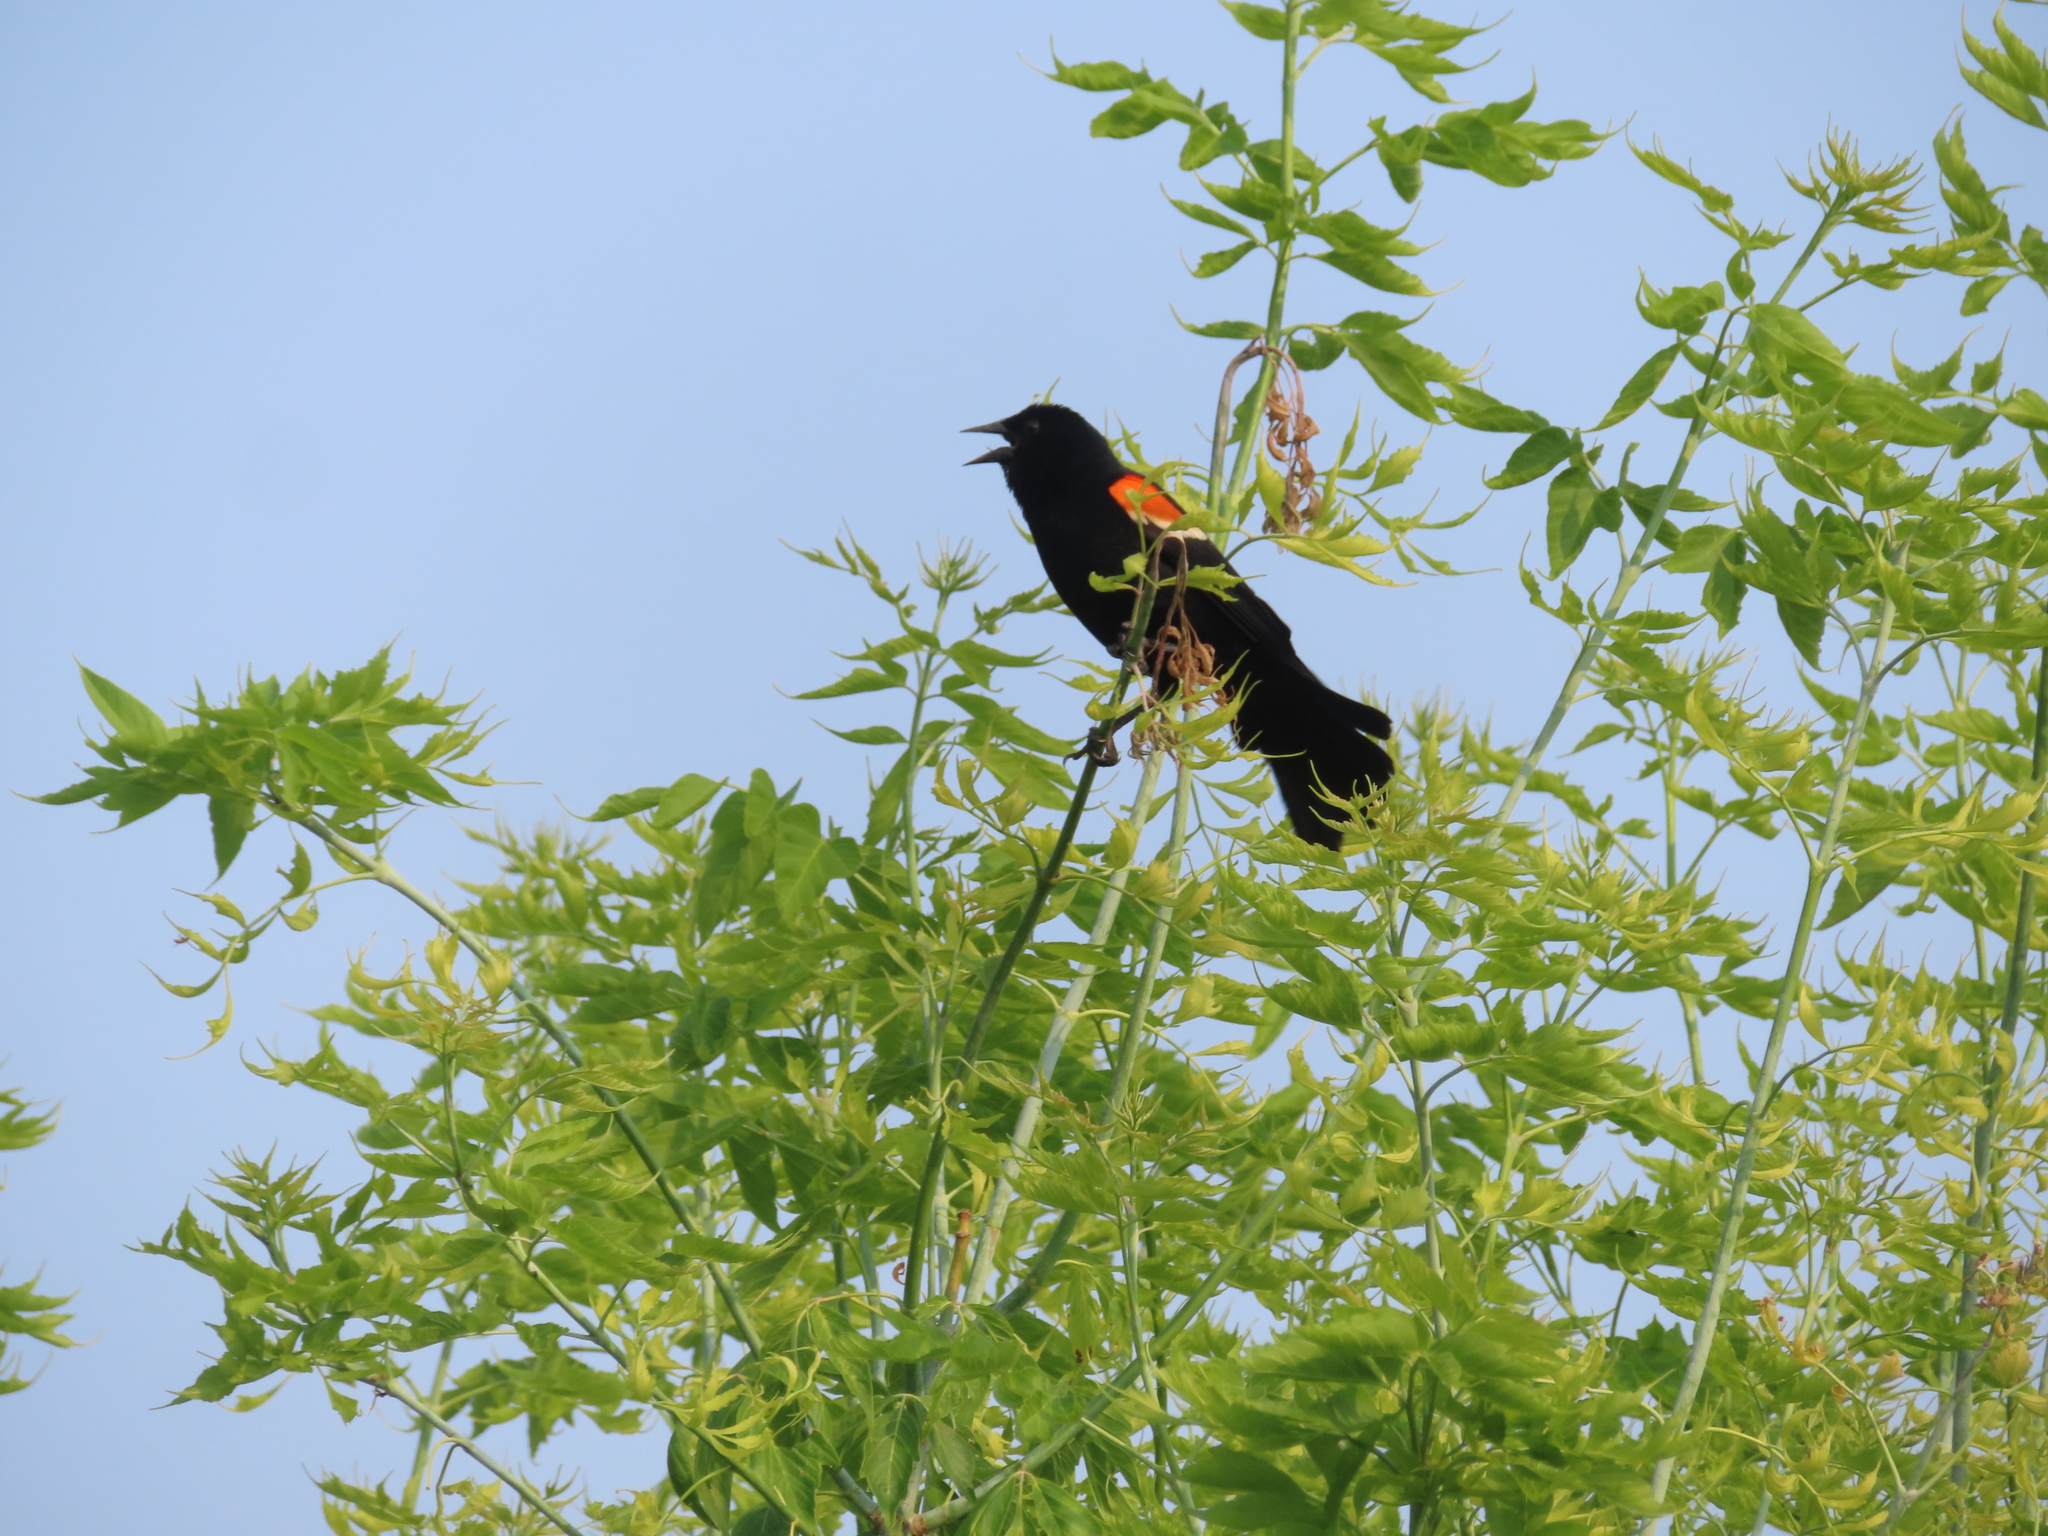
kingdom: Animalia
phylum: Chordata
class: Aves
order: Passeriformes
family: Icteridae
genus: Agelaius
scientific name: Agelaius phoeniceus
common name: Red-winged blackbird
